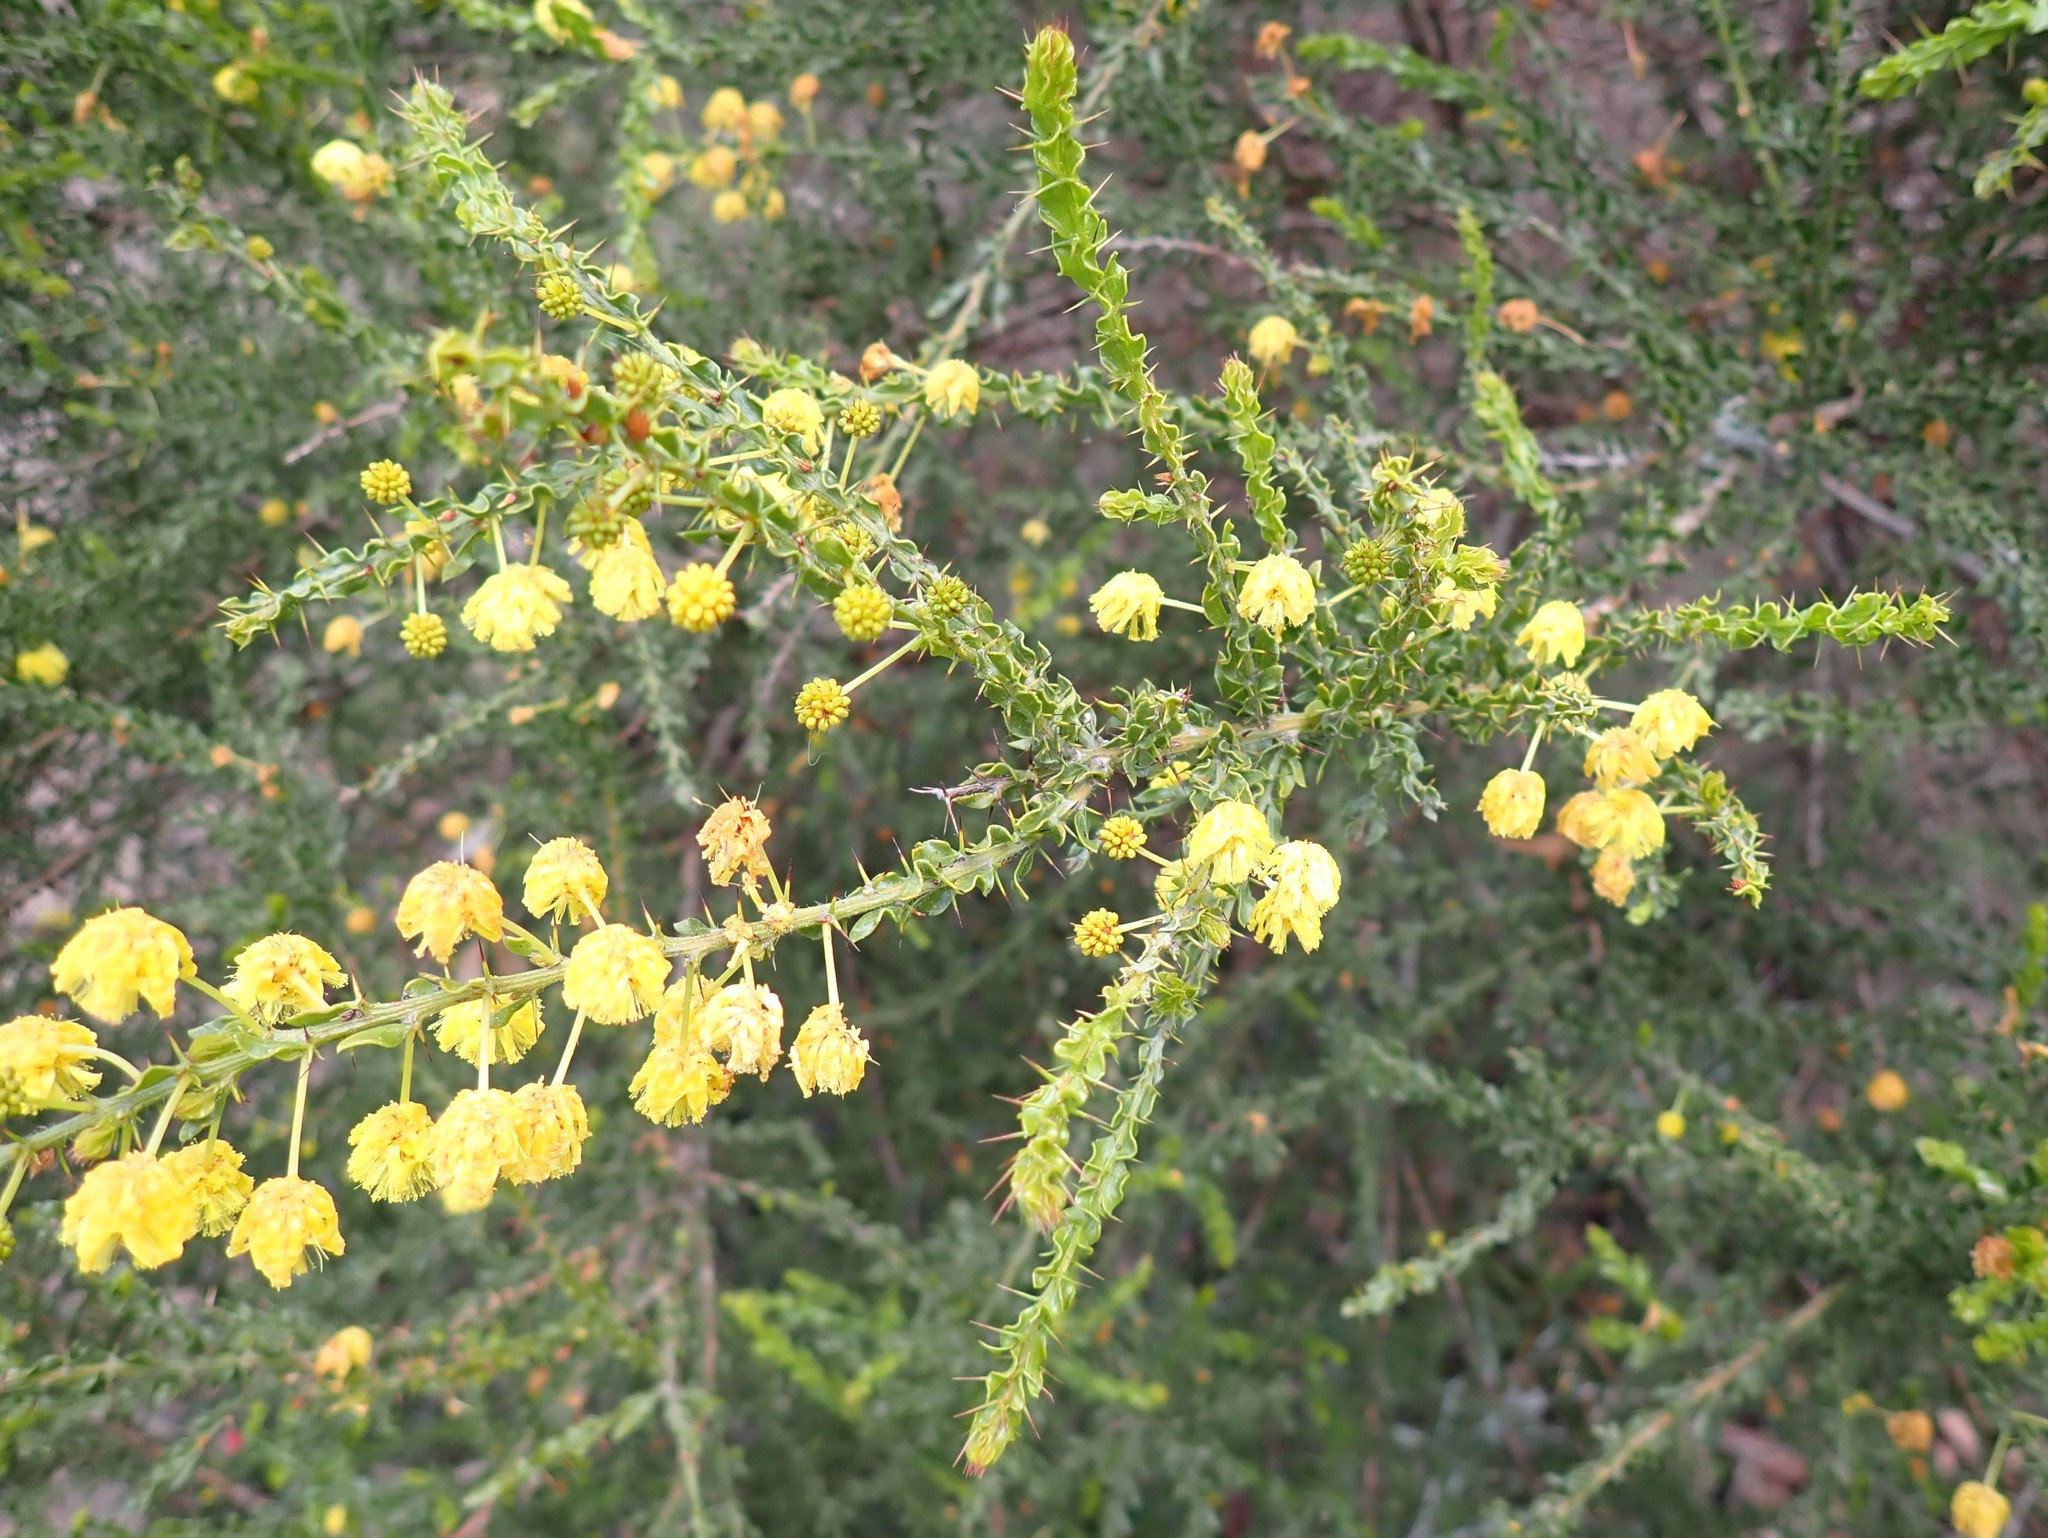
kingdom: Plantae
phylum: Tracheophyta
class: Magnoliopsida
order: Fabales
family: Fabaceae
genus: Acacia
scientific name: Acacia paradoxa
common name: Paradox acacia
